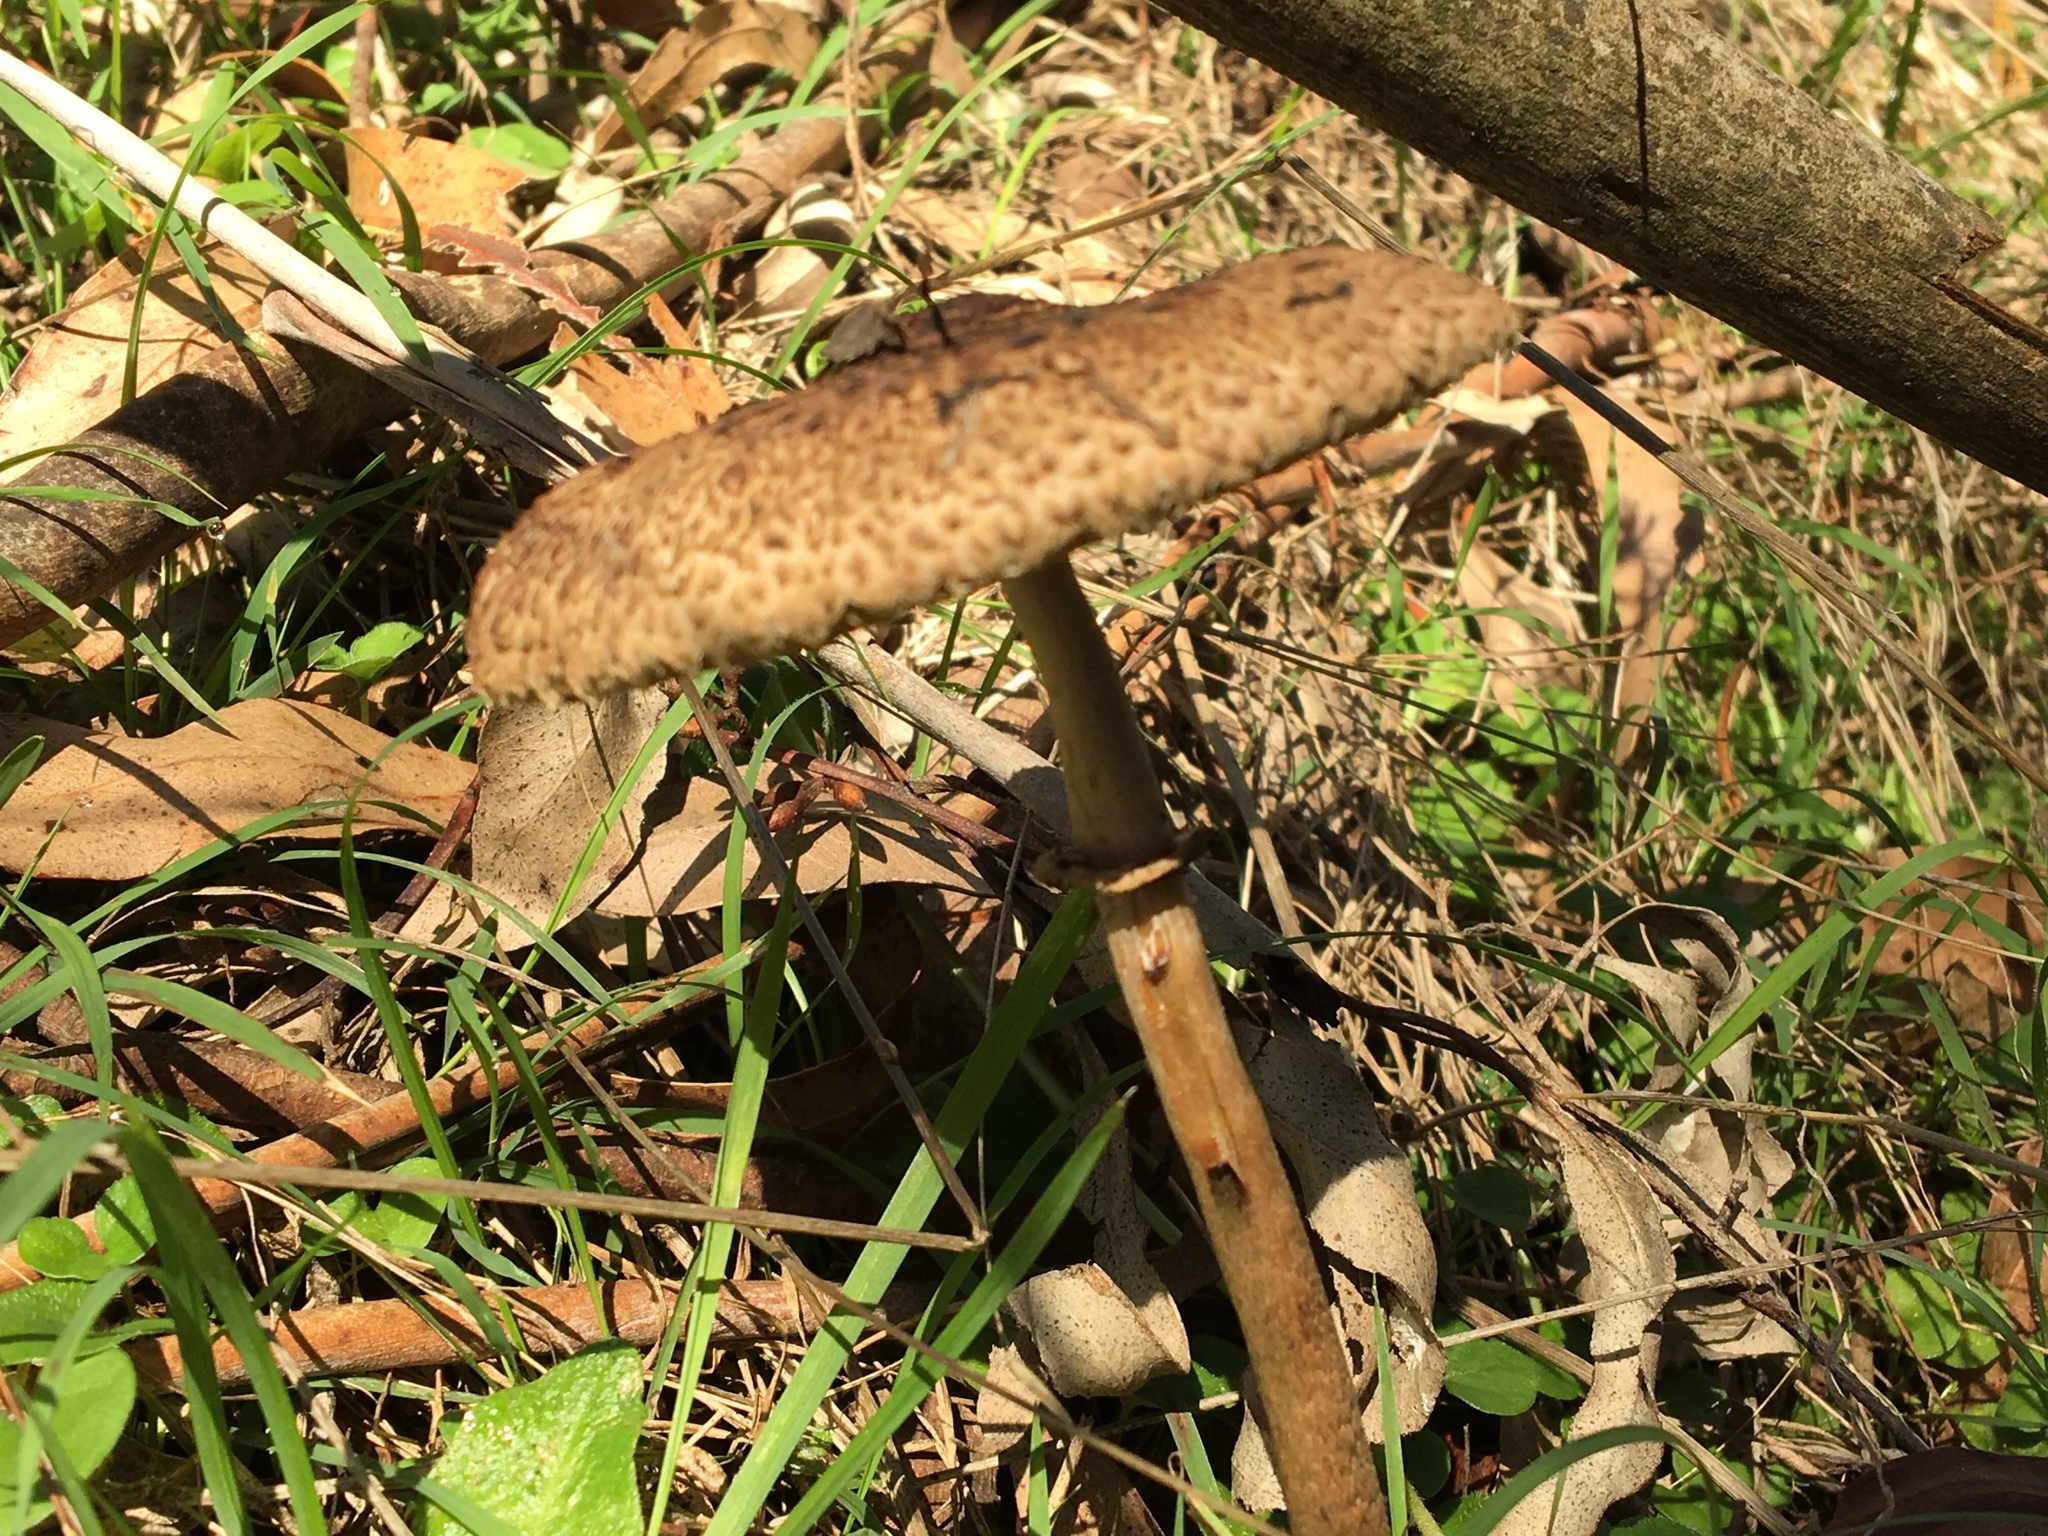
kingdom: Fungi
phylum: Basidiomycota
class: Agaricomycetes
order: Agaricales
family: Agaricaceae
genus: Macrolepiota
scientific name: Macrolepiota clelandii
